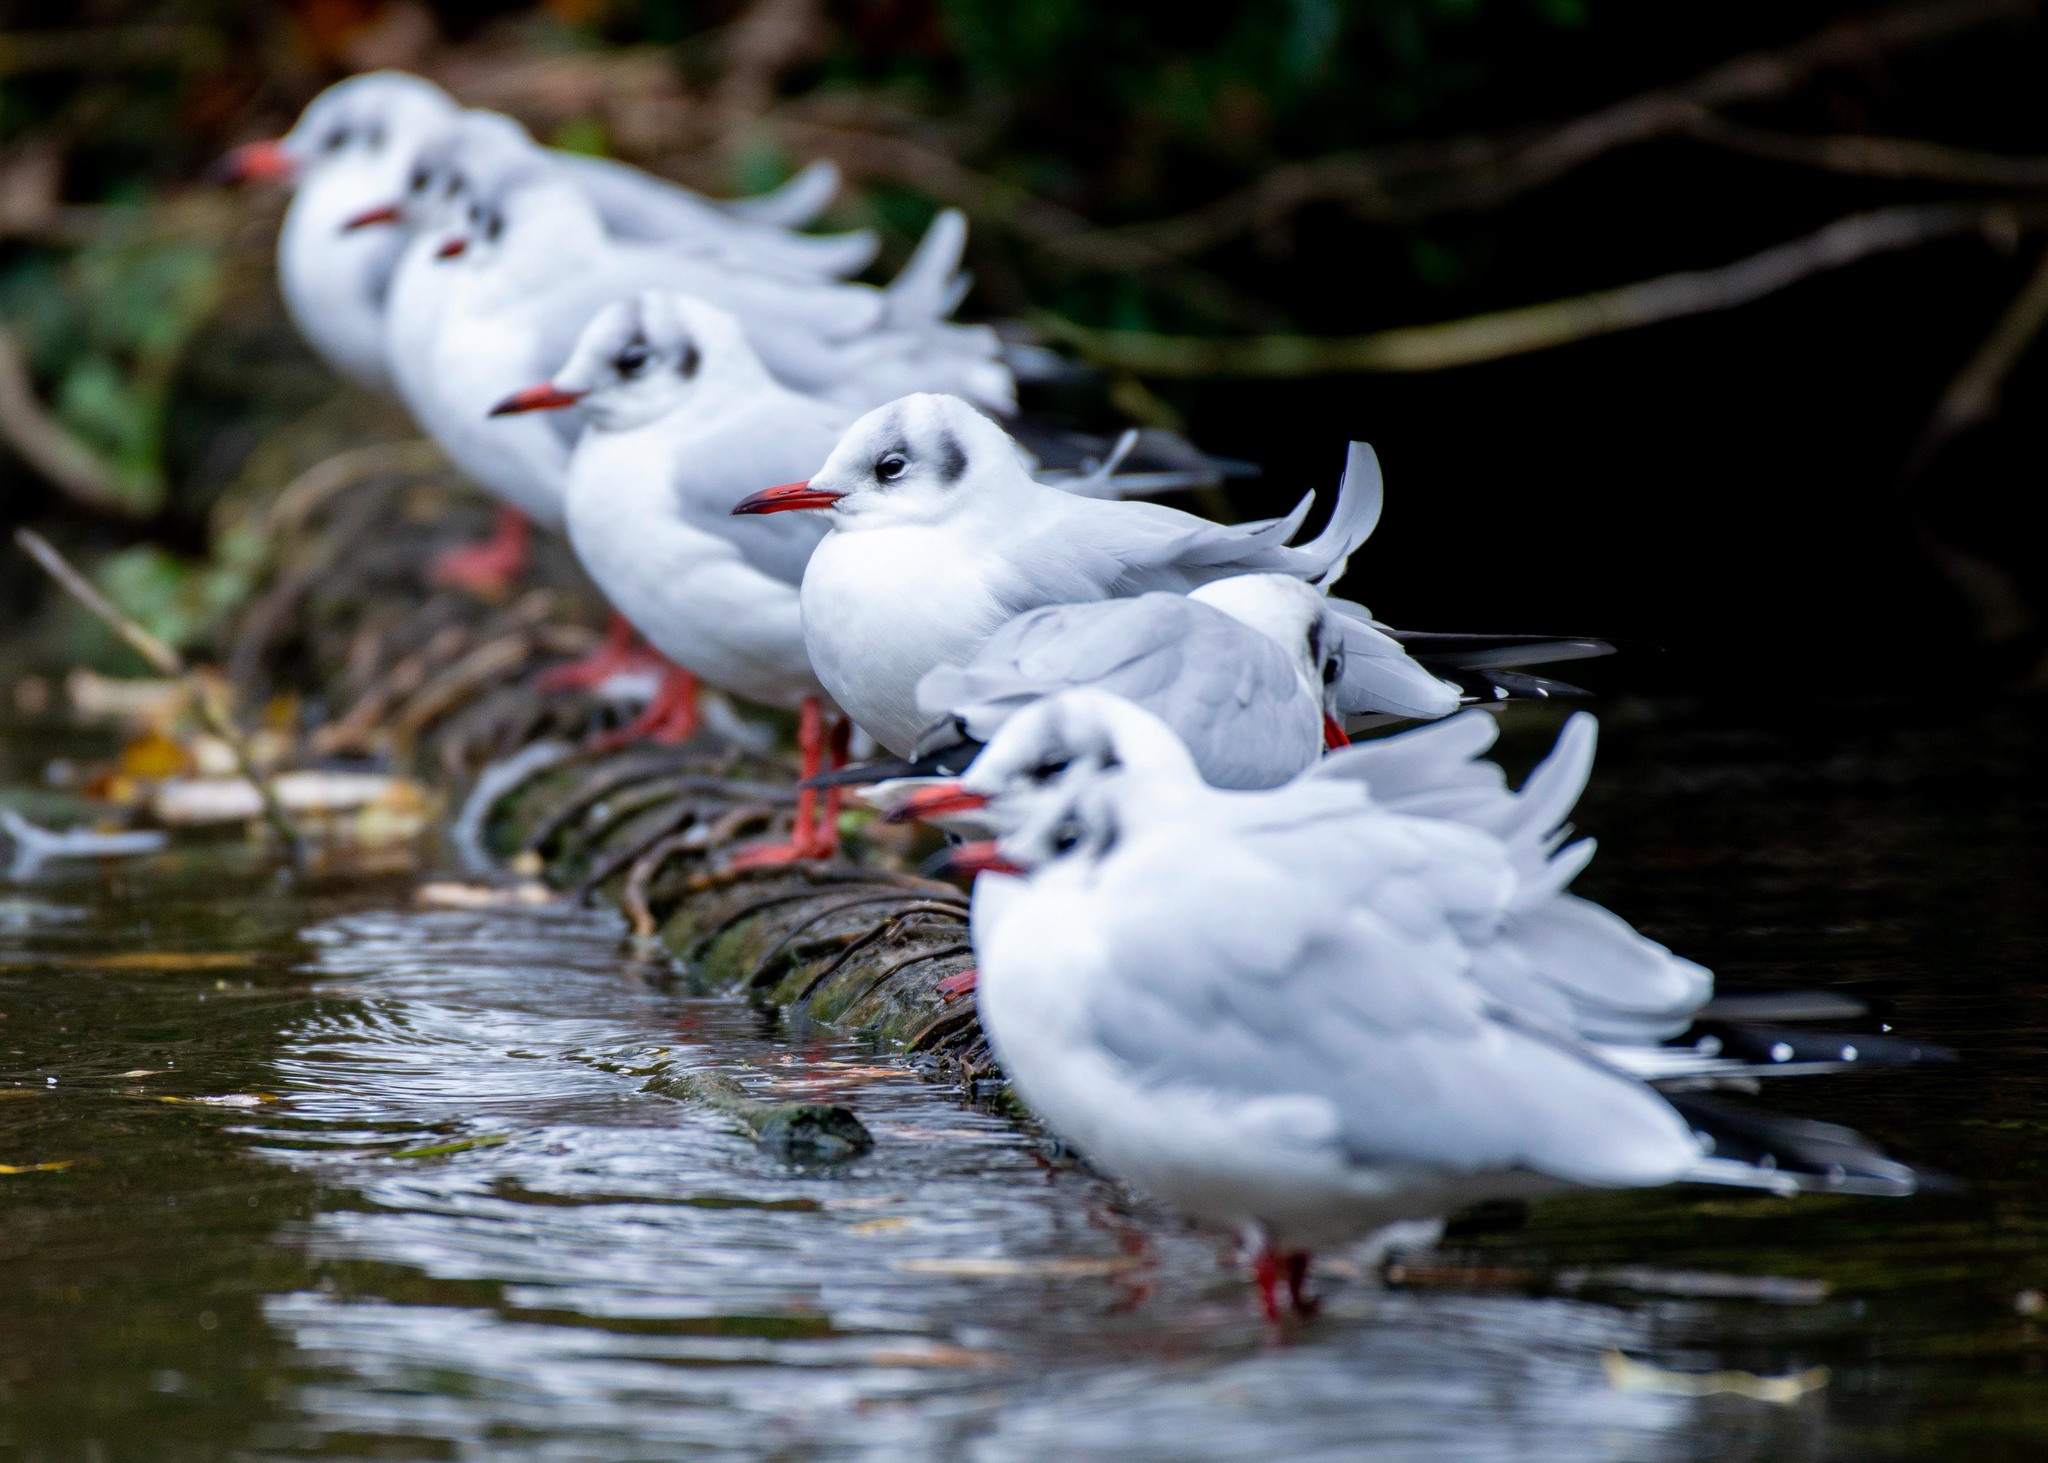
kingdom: Animalia
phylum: Chordata
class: Aves
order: Charadriiformes
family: Laridae
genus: Chroicocephalus
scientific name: Chroicocephalus ridibundus
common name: Black-headed gull
